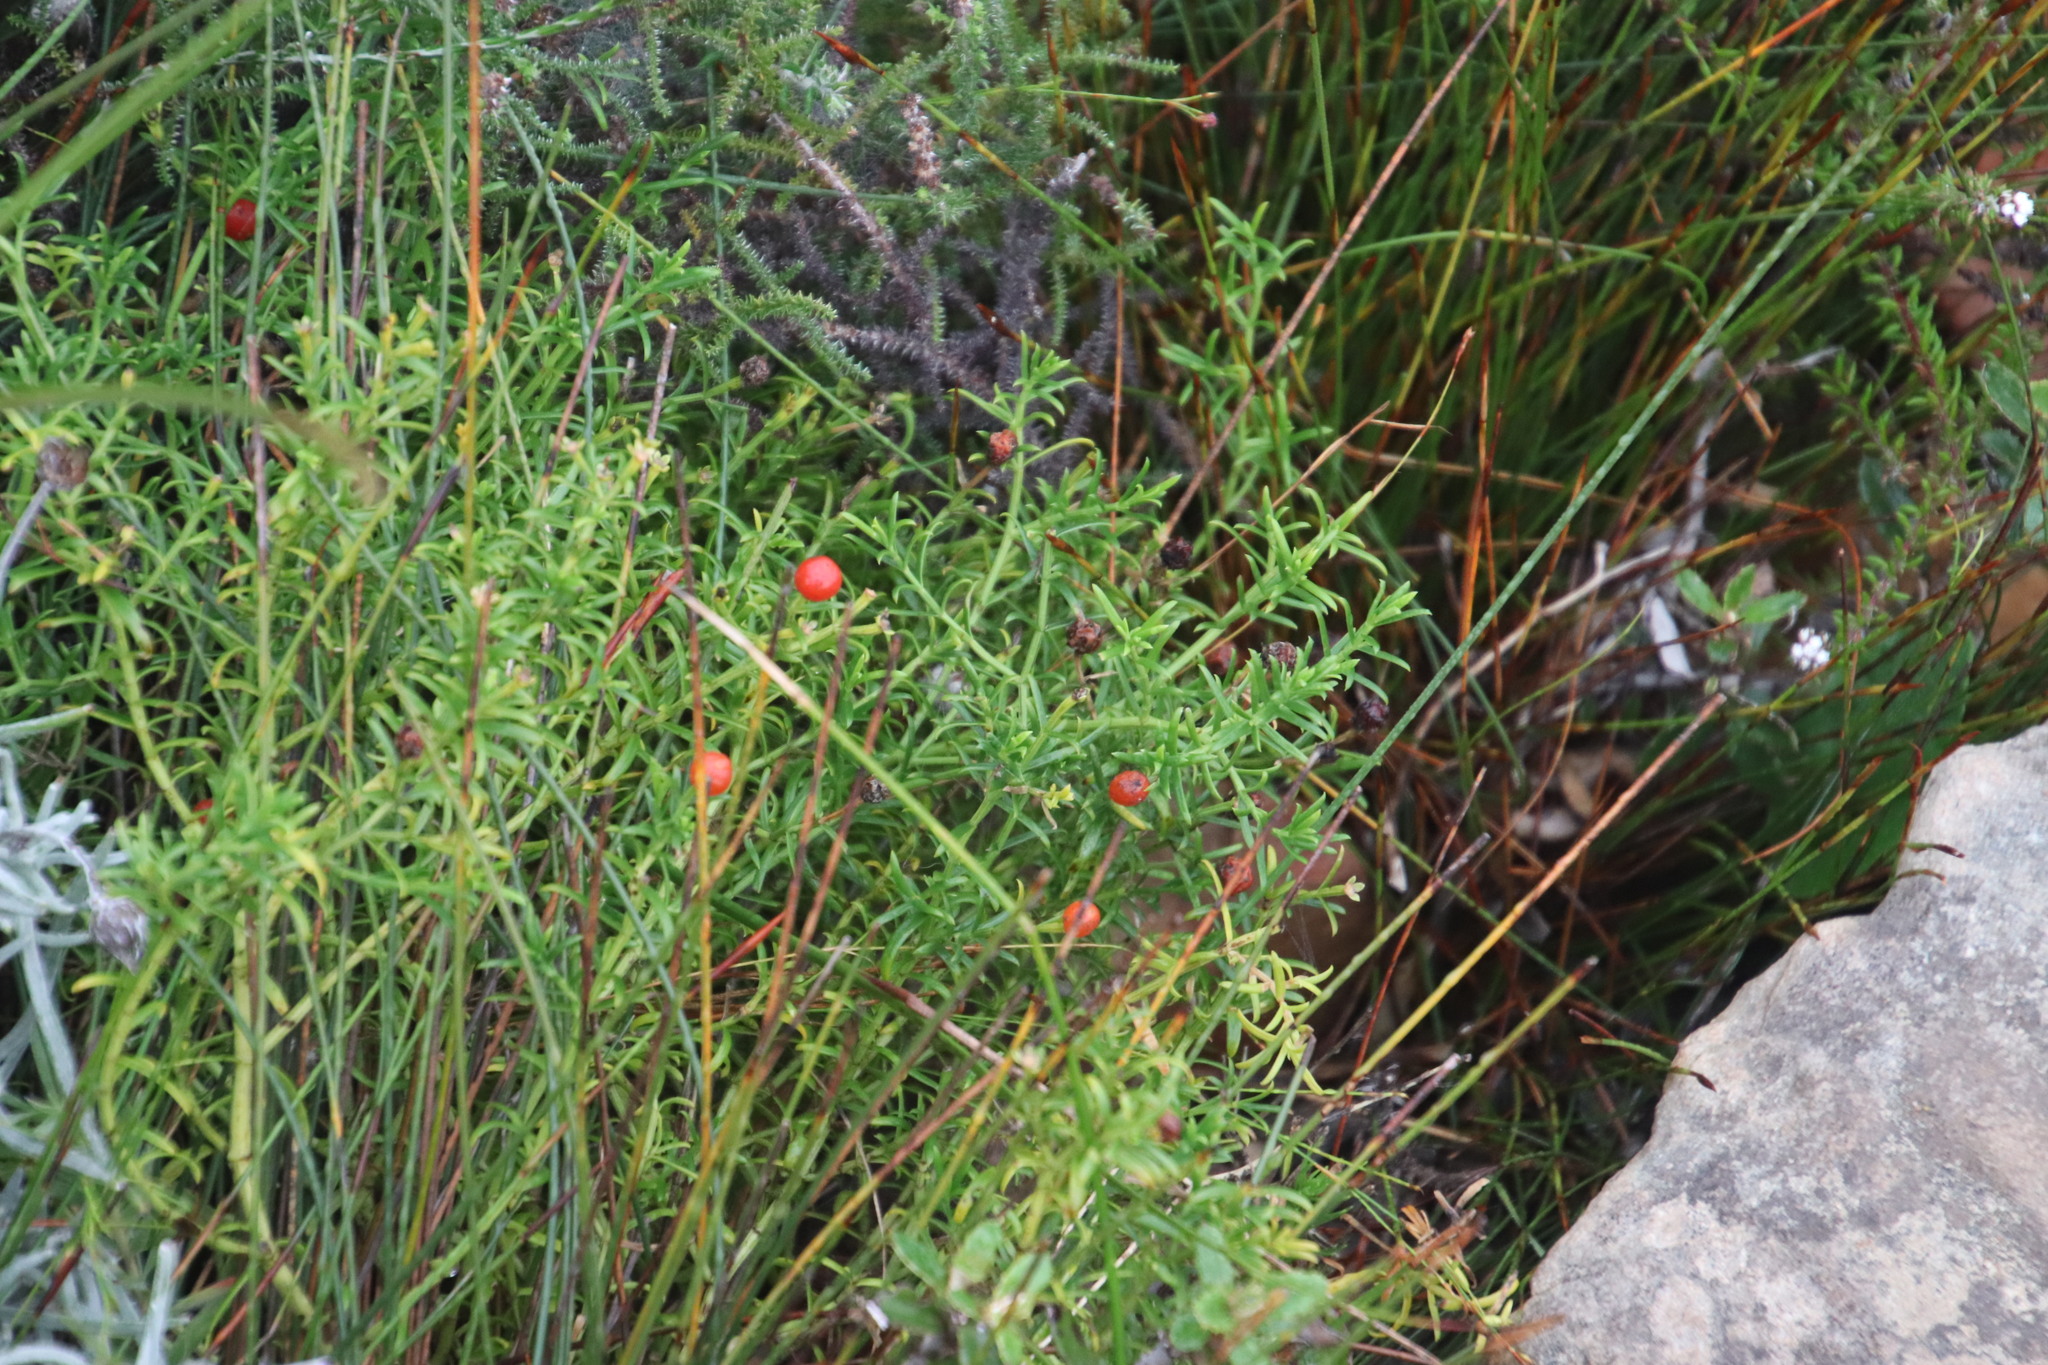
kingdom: Plantae
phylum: Tracheophyta
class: Magnoliopsida
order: Gentianales
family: Gentianaceae
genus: Chironia
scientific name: Chironia baccifera
